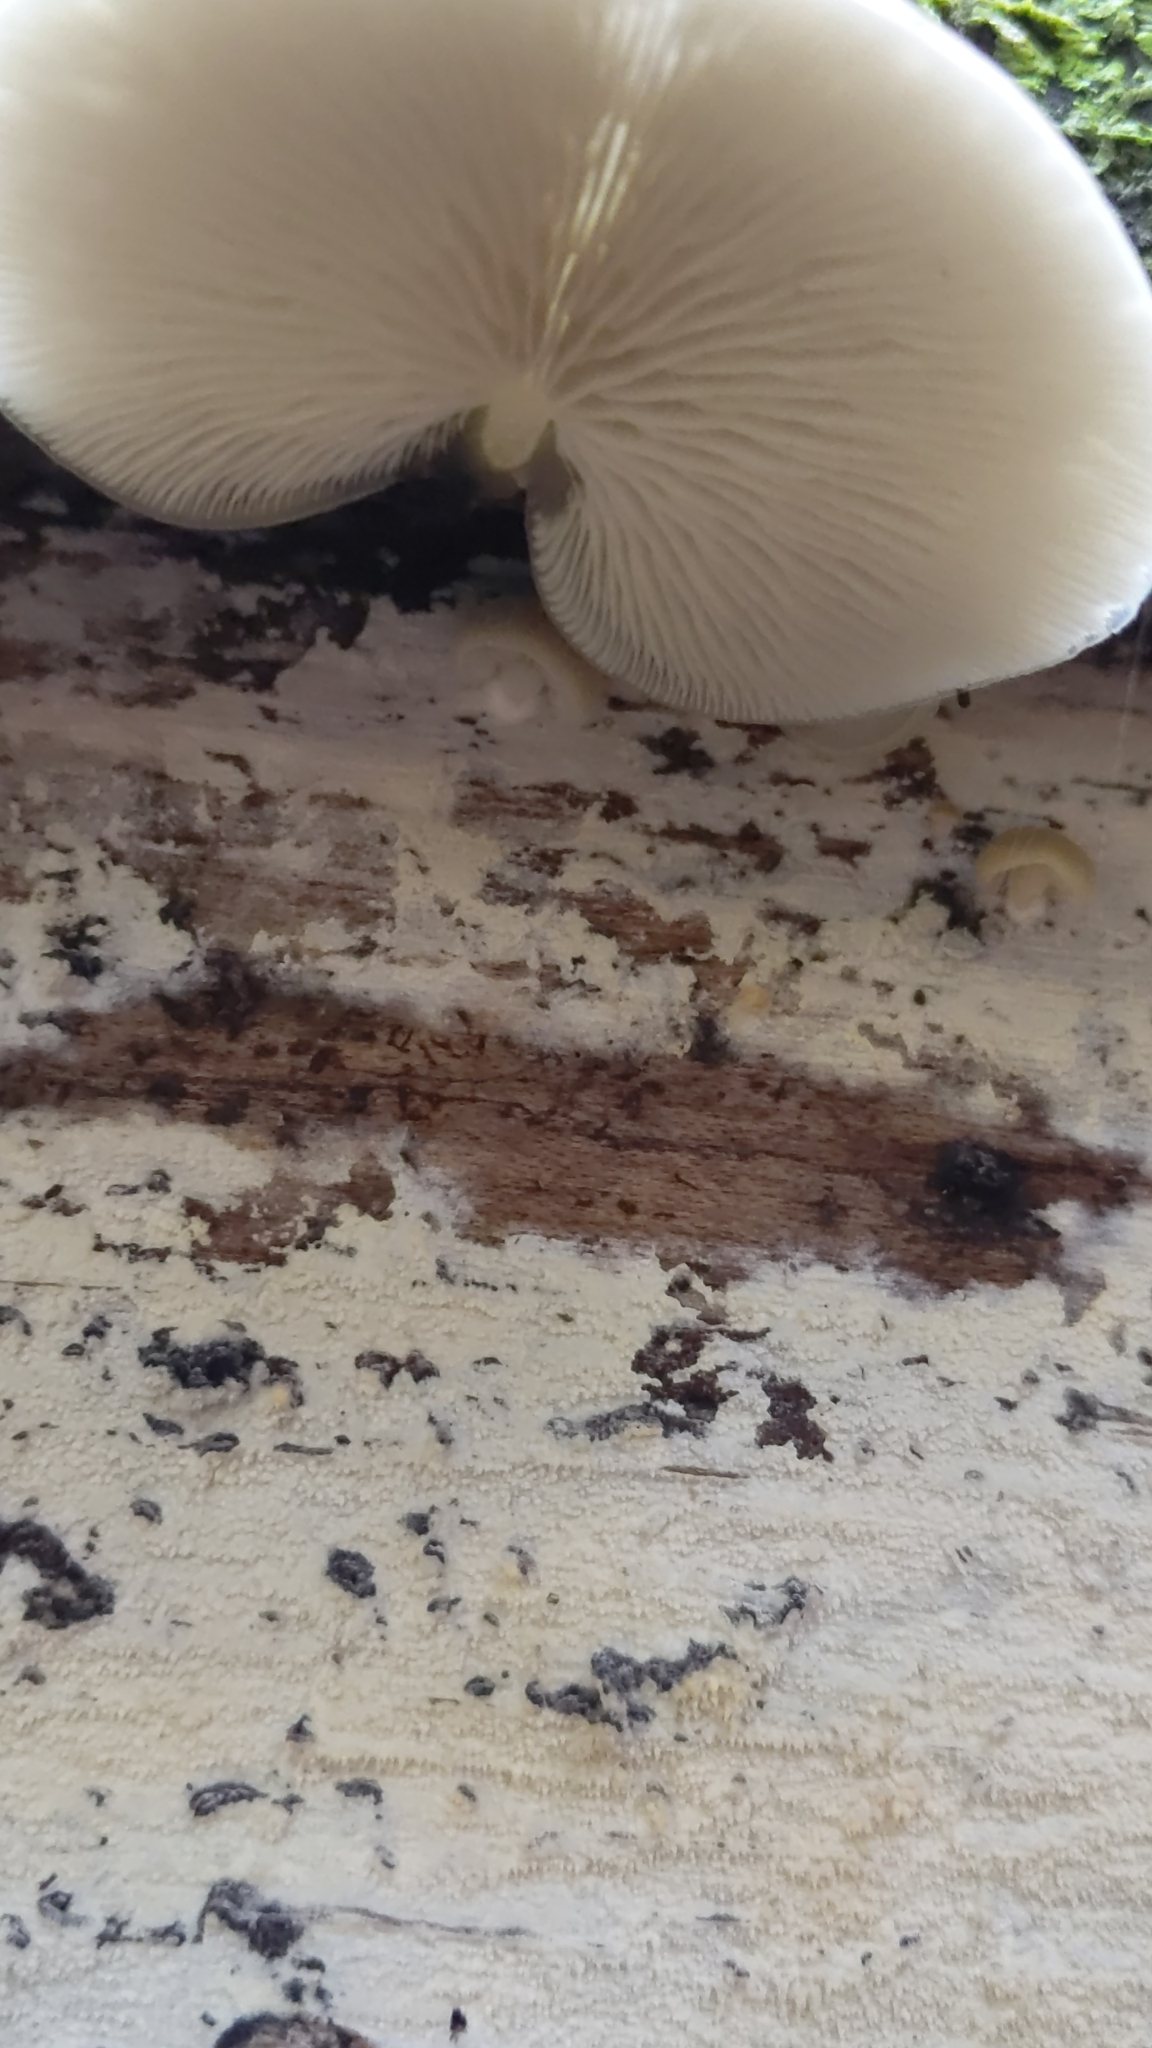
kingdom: Fungi
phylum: Basidiomycota
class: Agaricomycetes
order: Agaricales
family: Tricholomataceae
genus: Conchomyces
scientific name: Conchomyces bursiformis
